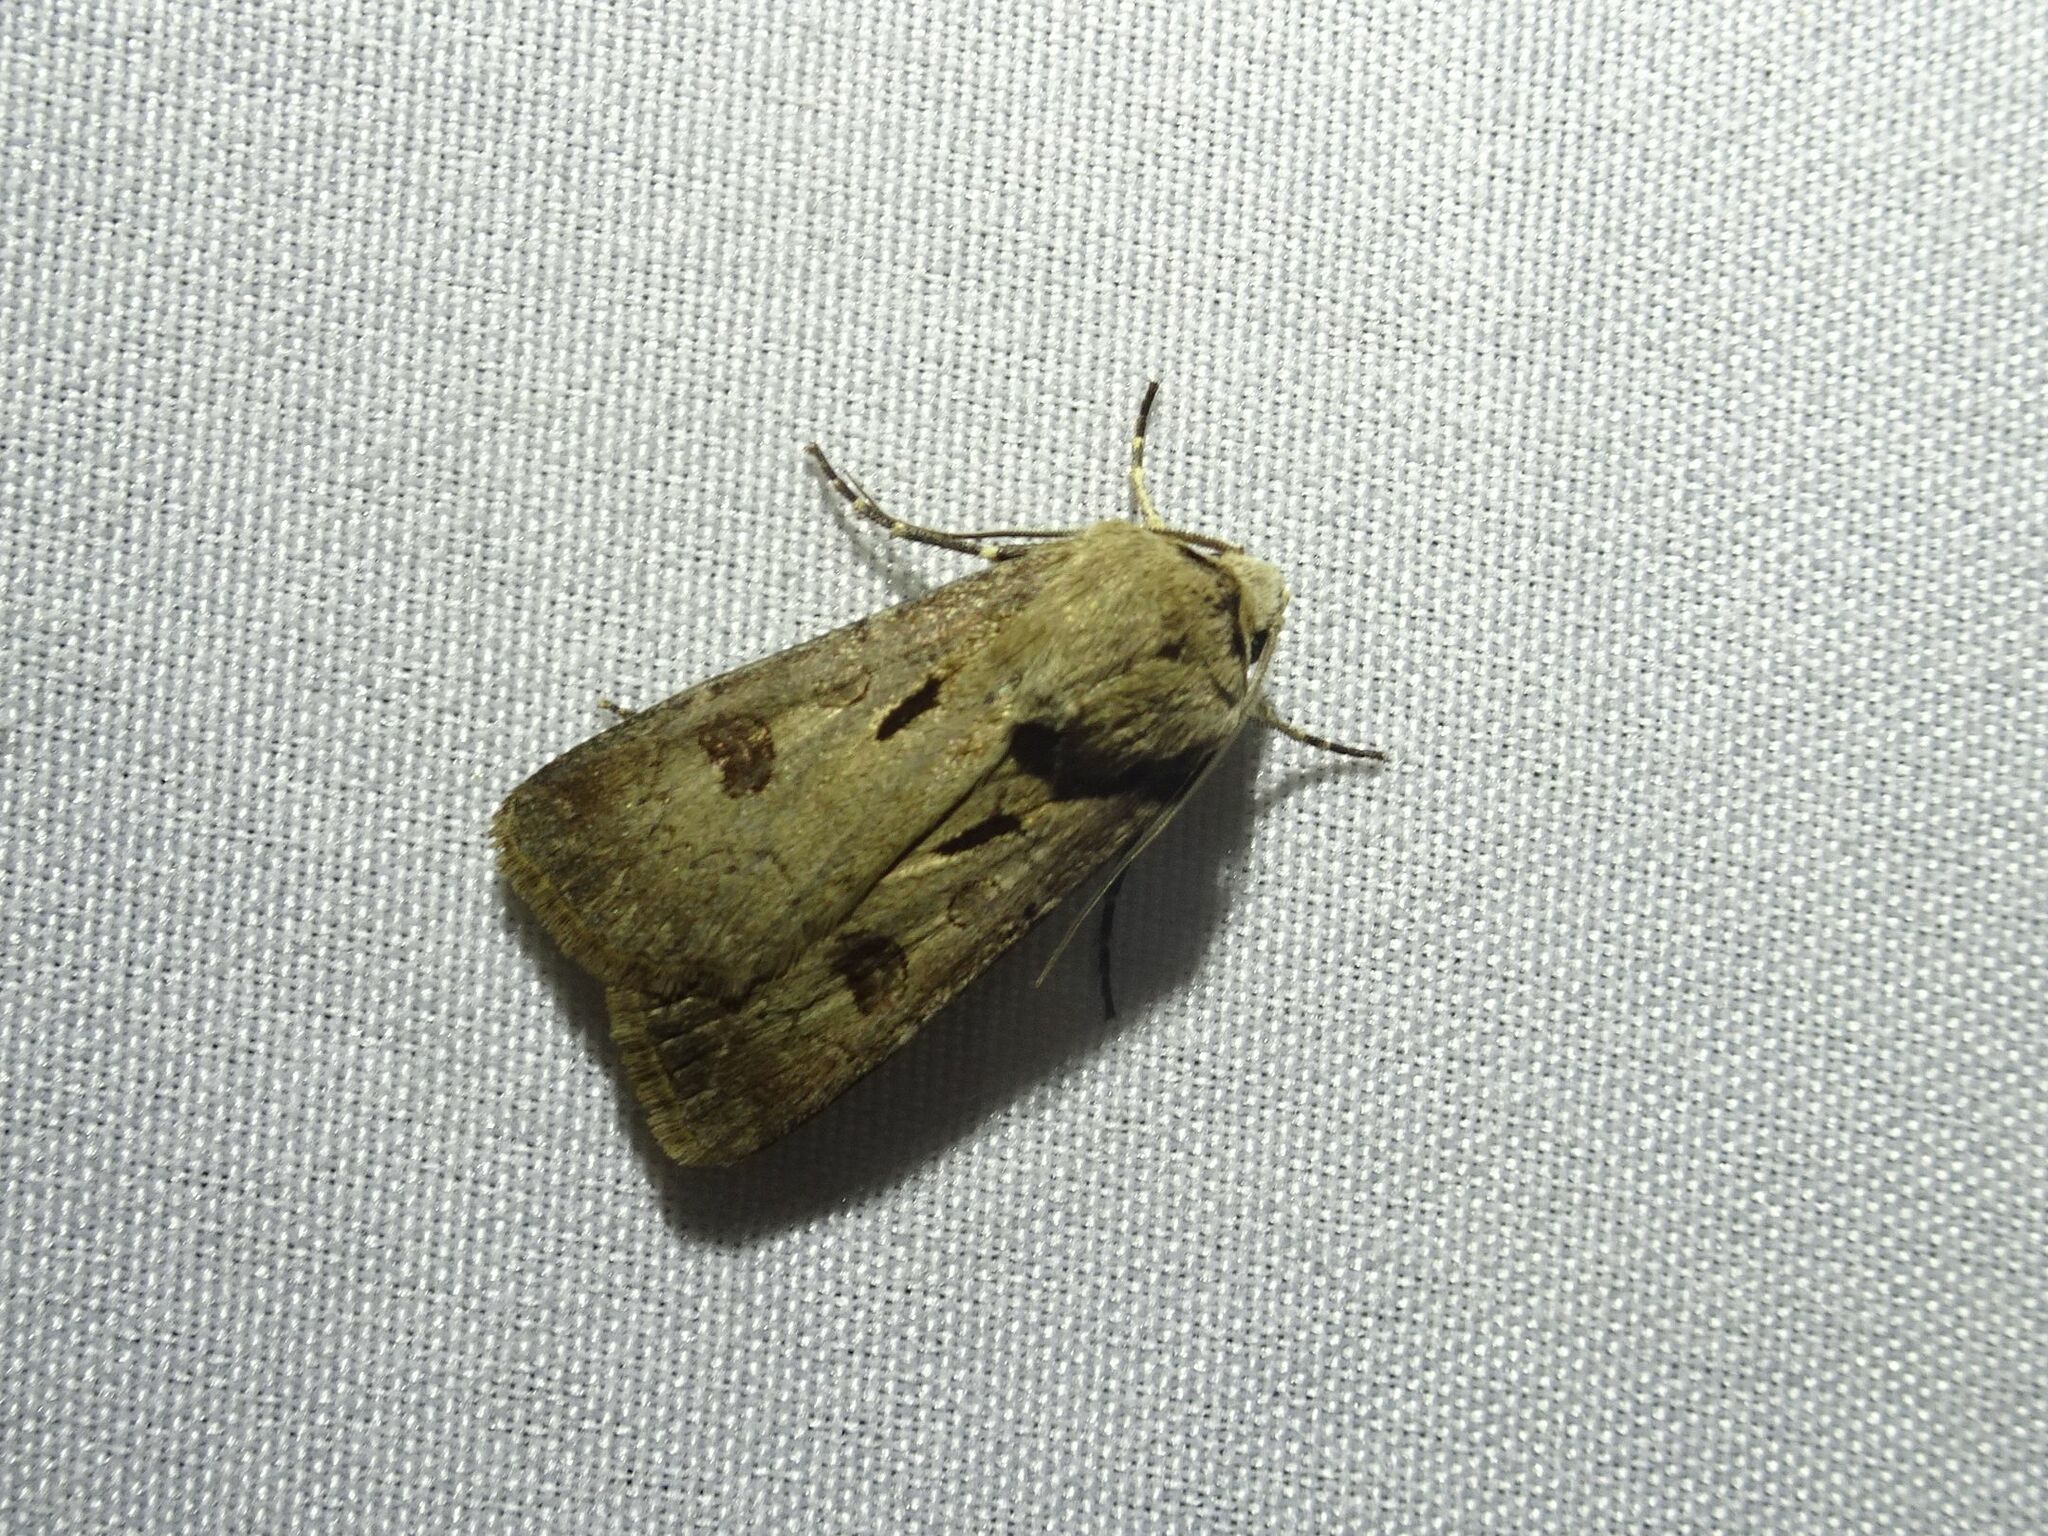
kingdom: Animalia
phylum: Arthropoda
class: Insecta
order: Lepidoptera
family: Noctuidae
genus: Agrotis
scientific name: Agrotis exclamationis
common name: Heart and dart
